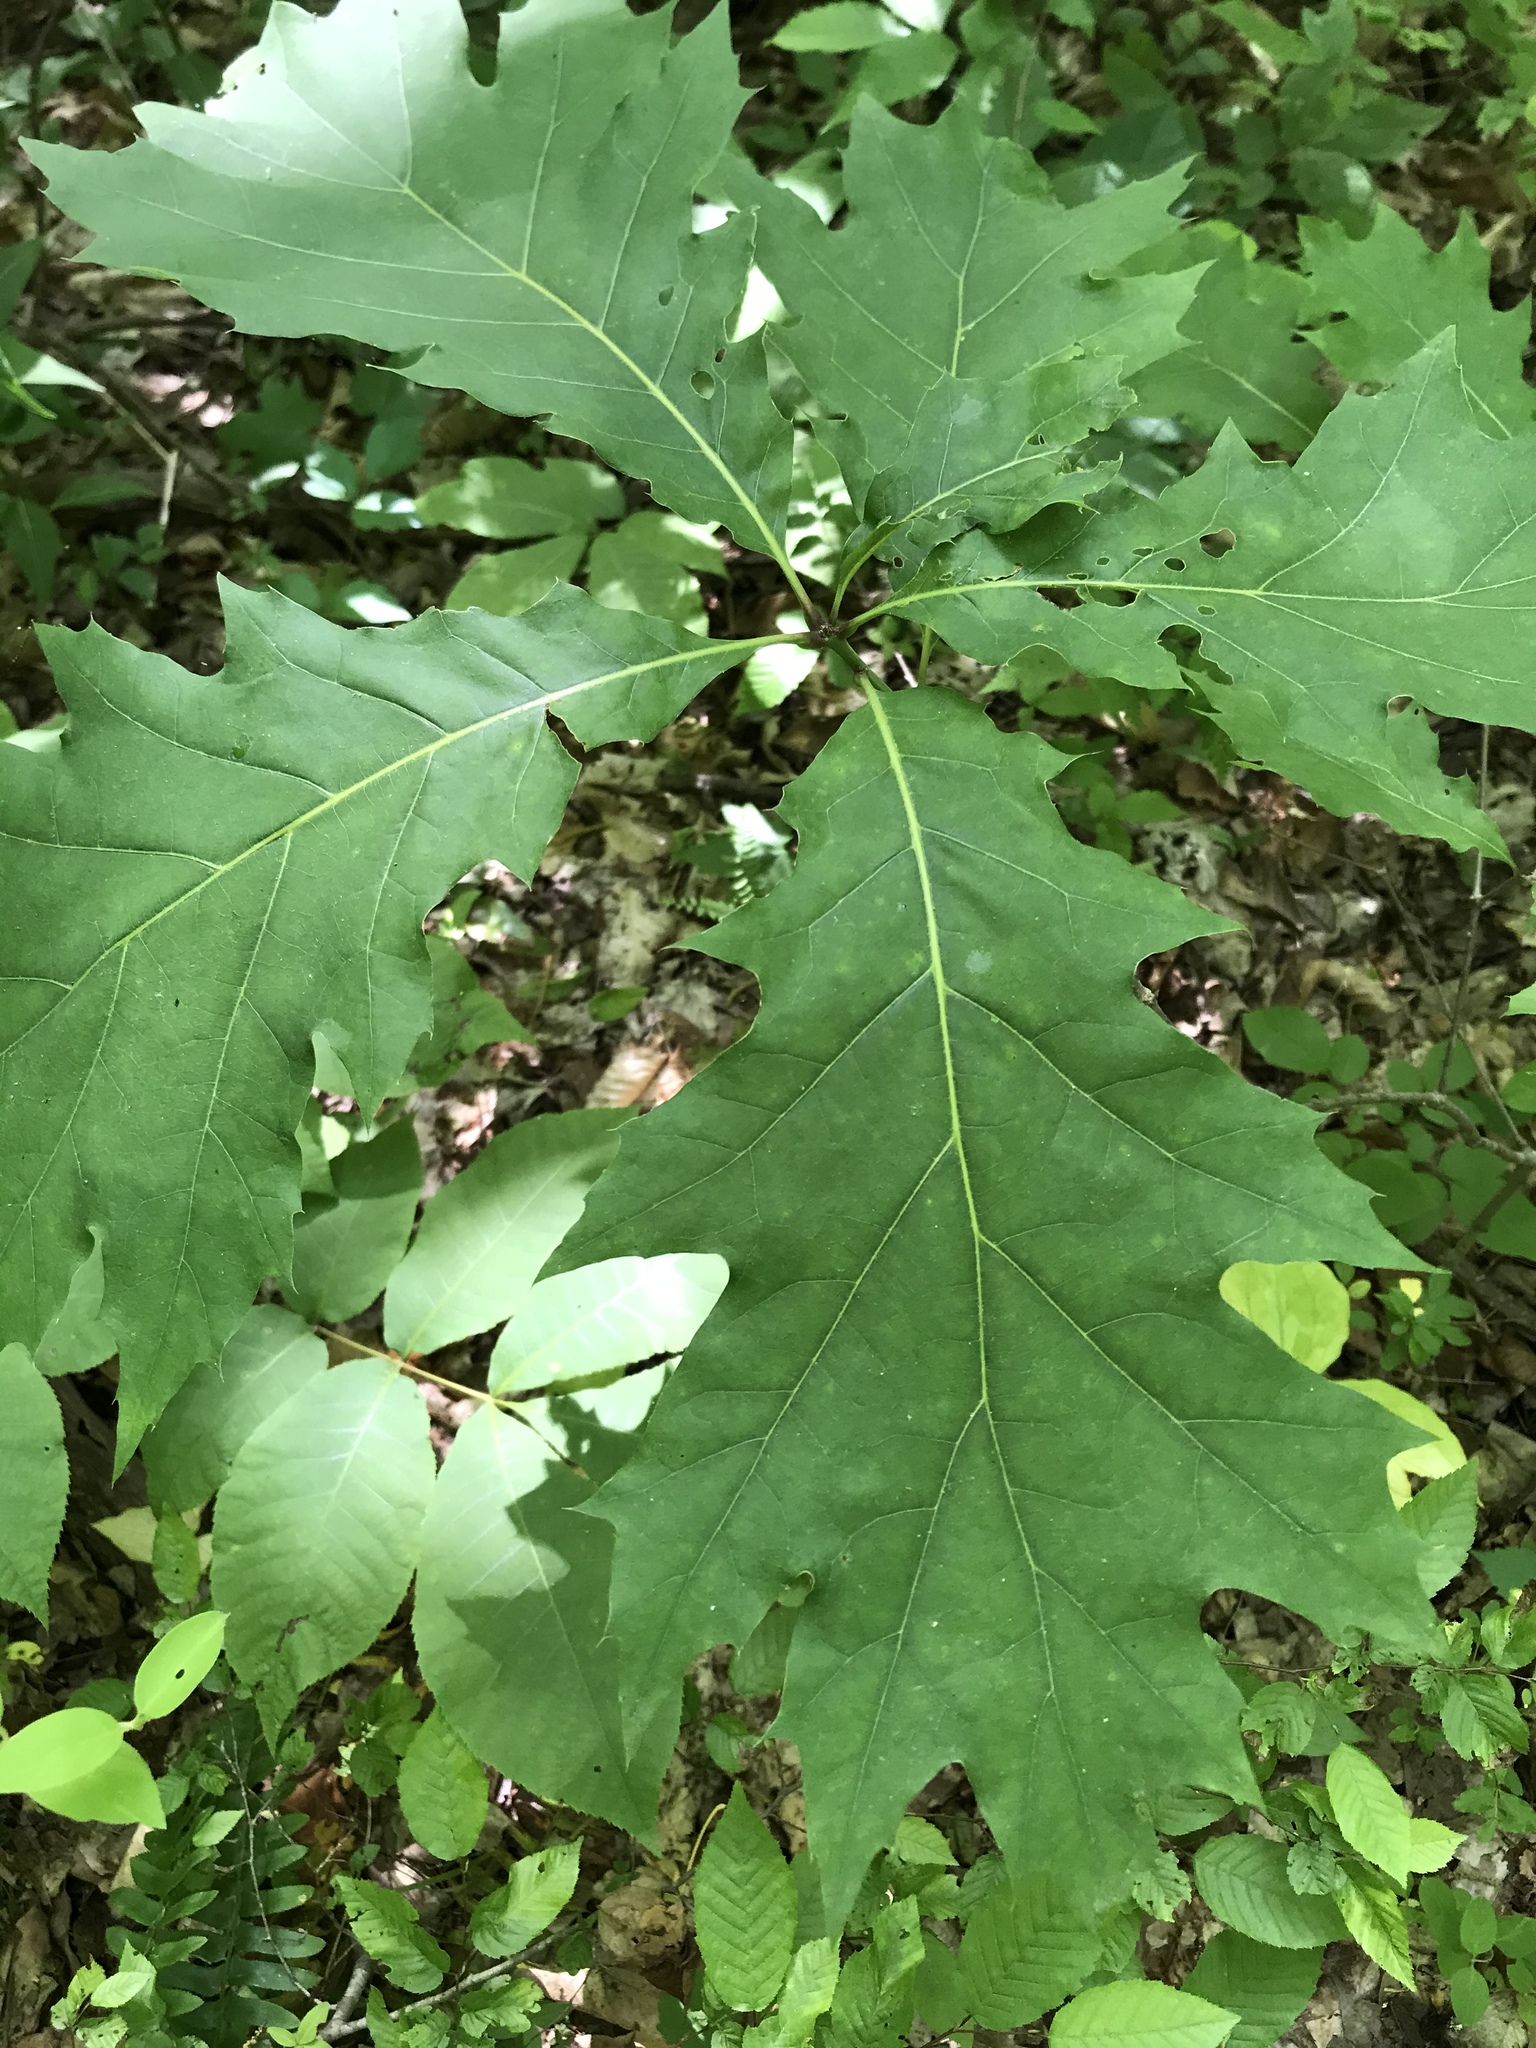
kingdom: Plantae
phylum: Tracheophyta
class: Magnoliopsida
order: Fagales
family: Fagaceae
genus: Quercus
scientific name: Quercus velutina
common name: Black oak
